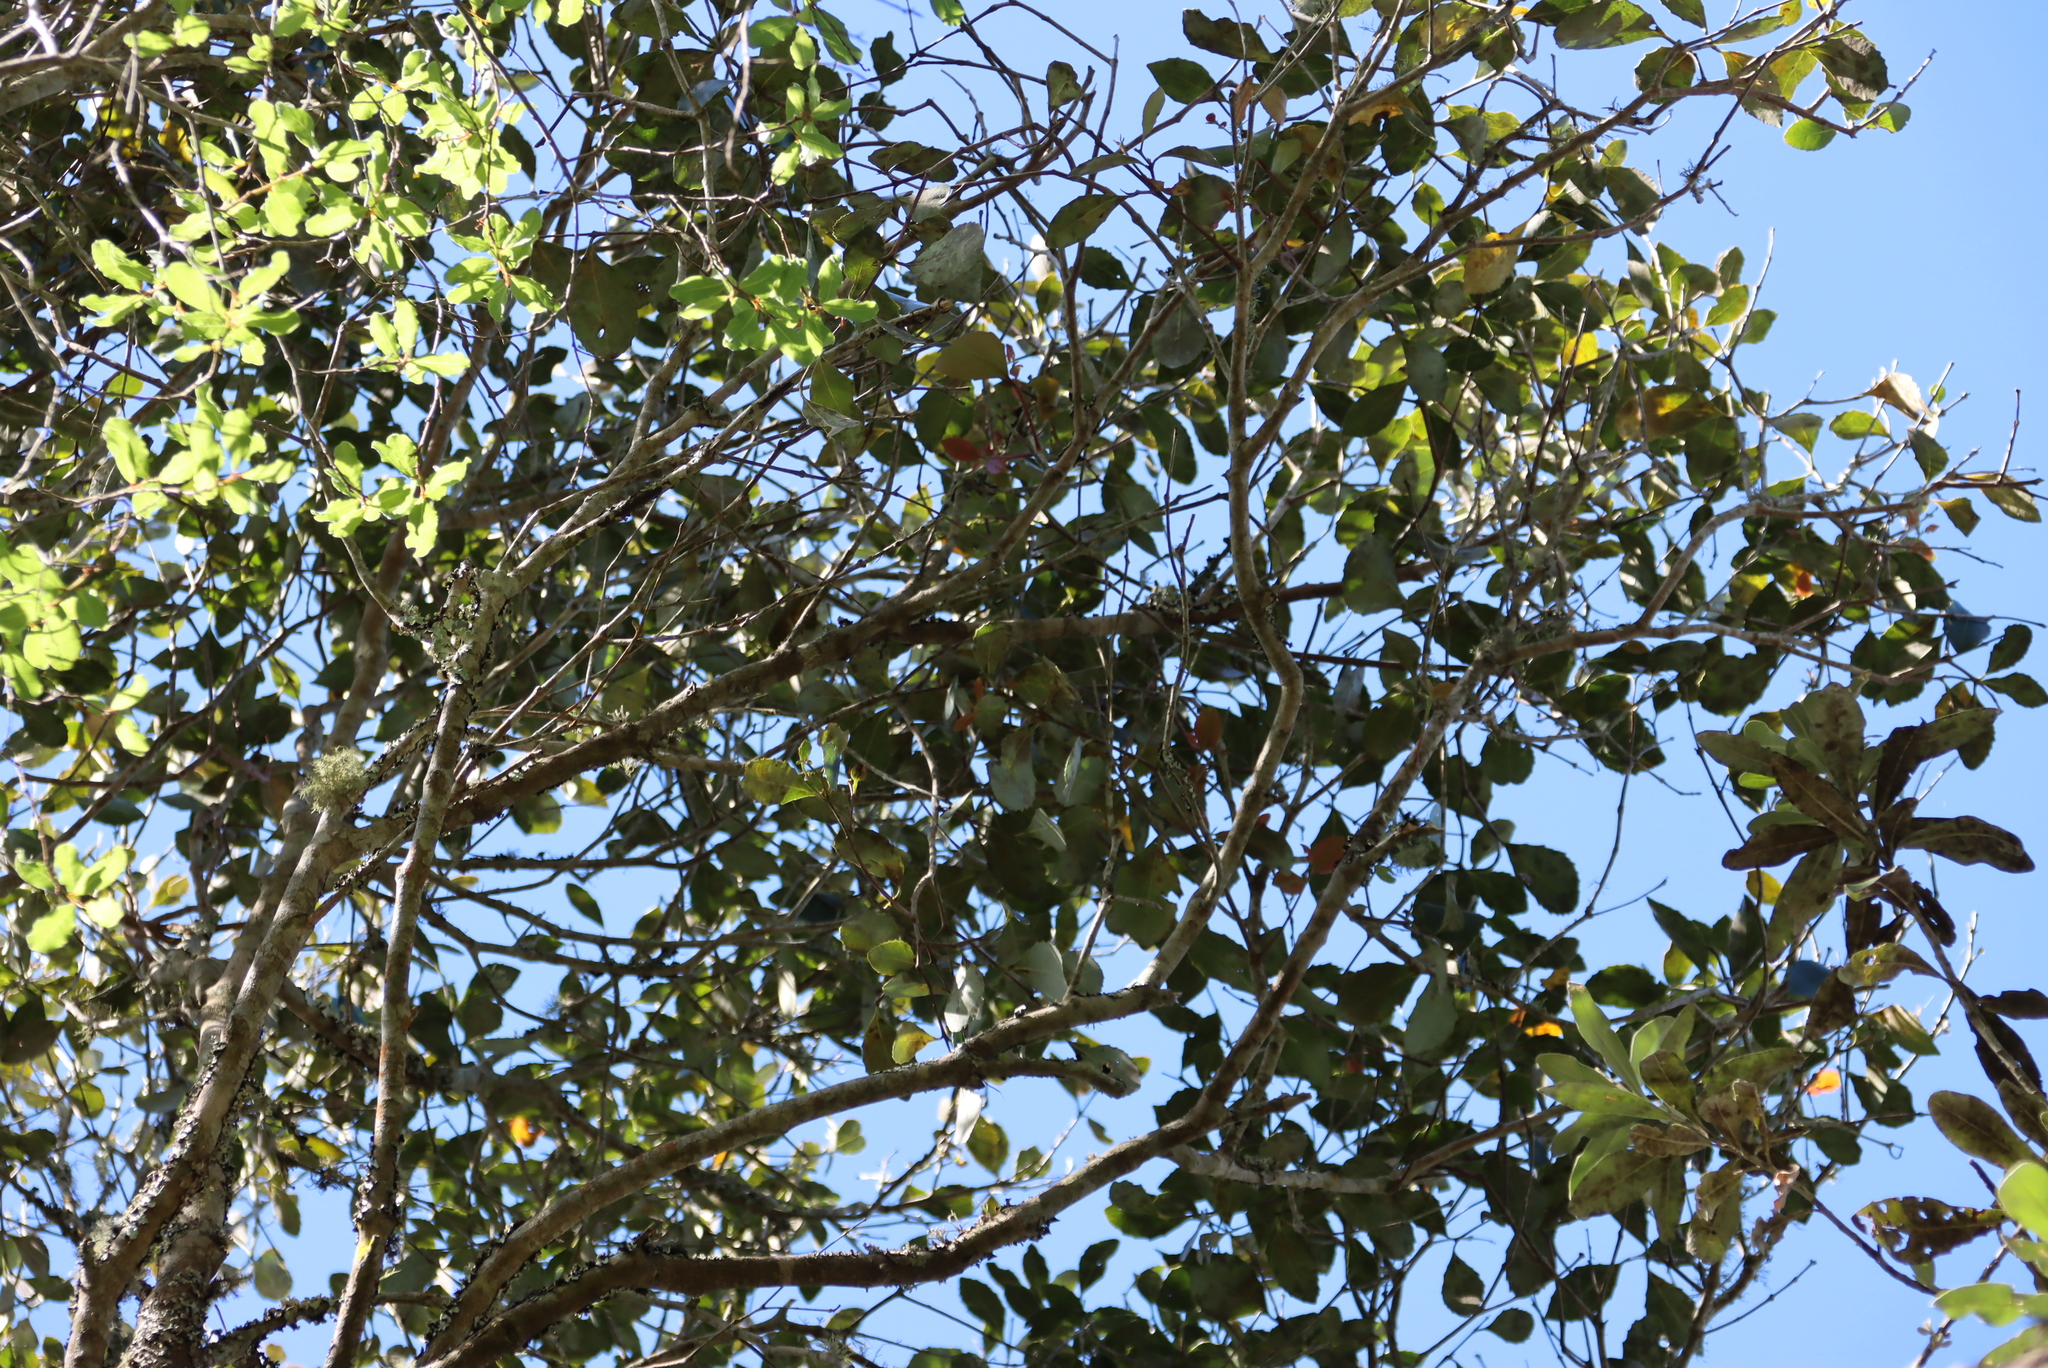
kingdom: Plantae
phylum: Tracheophyta
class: Magnoliopsida
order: Celastrales
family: Celastraceae
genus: Cassine
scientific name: Cassine peragua
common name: Cape saffron
